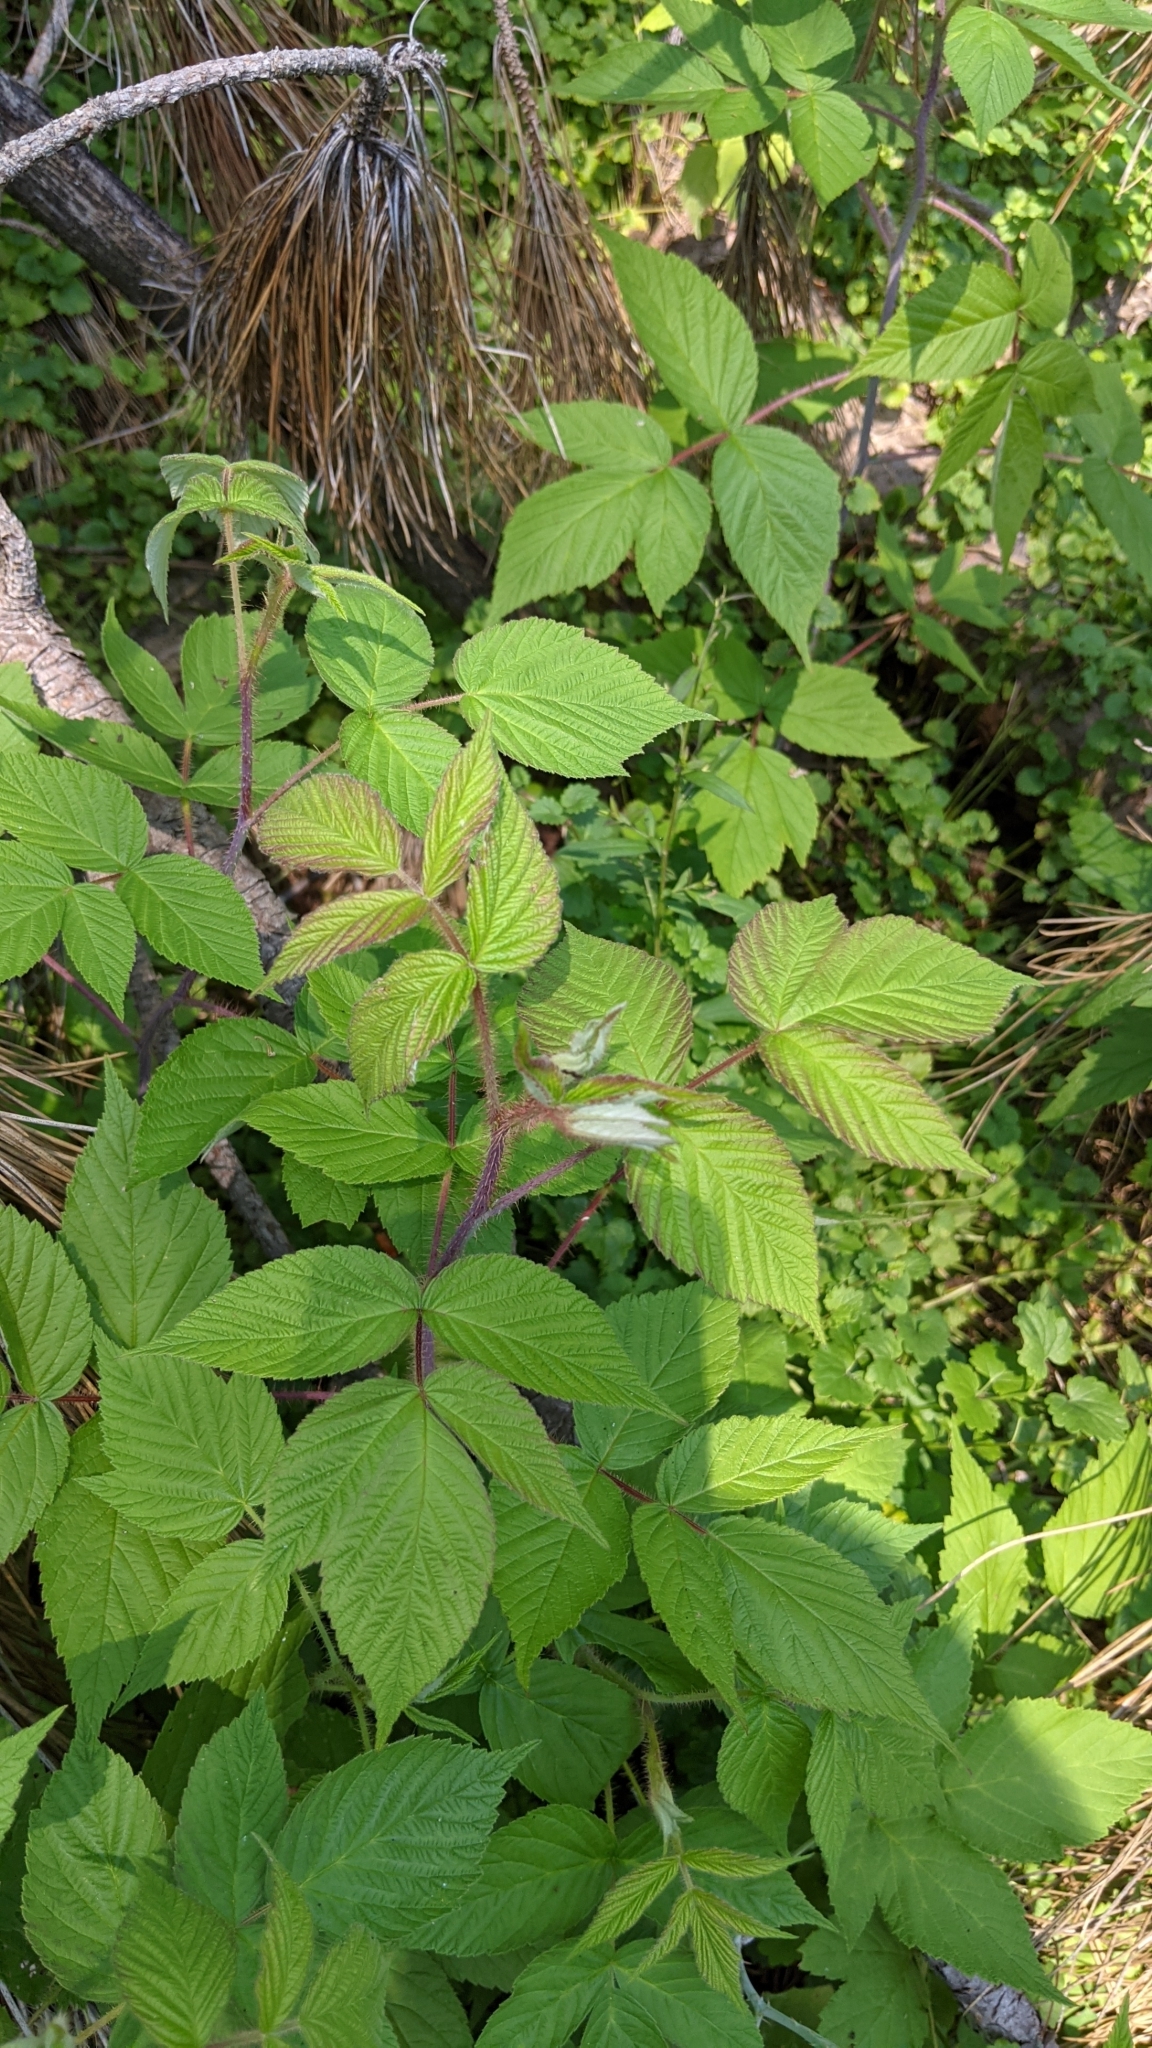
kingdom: Plantae
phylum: Tracheophyta
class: Magnoliopsida
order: Rosales
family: Rosaceae
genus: Rubus
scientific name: Rubus idaeus
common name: Raspberry
